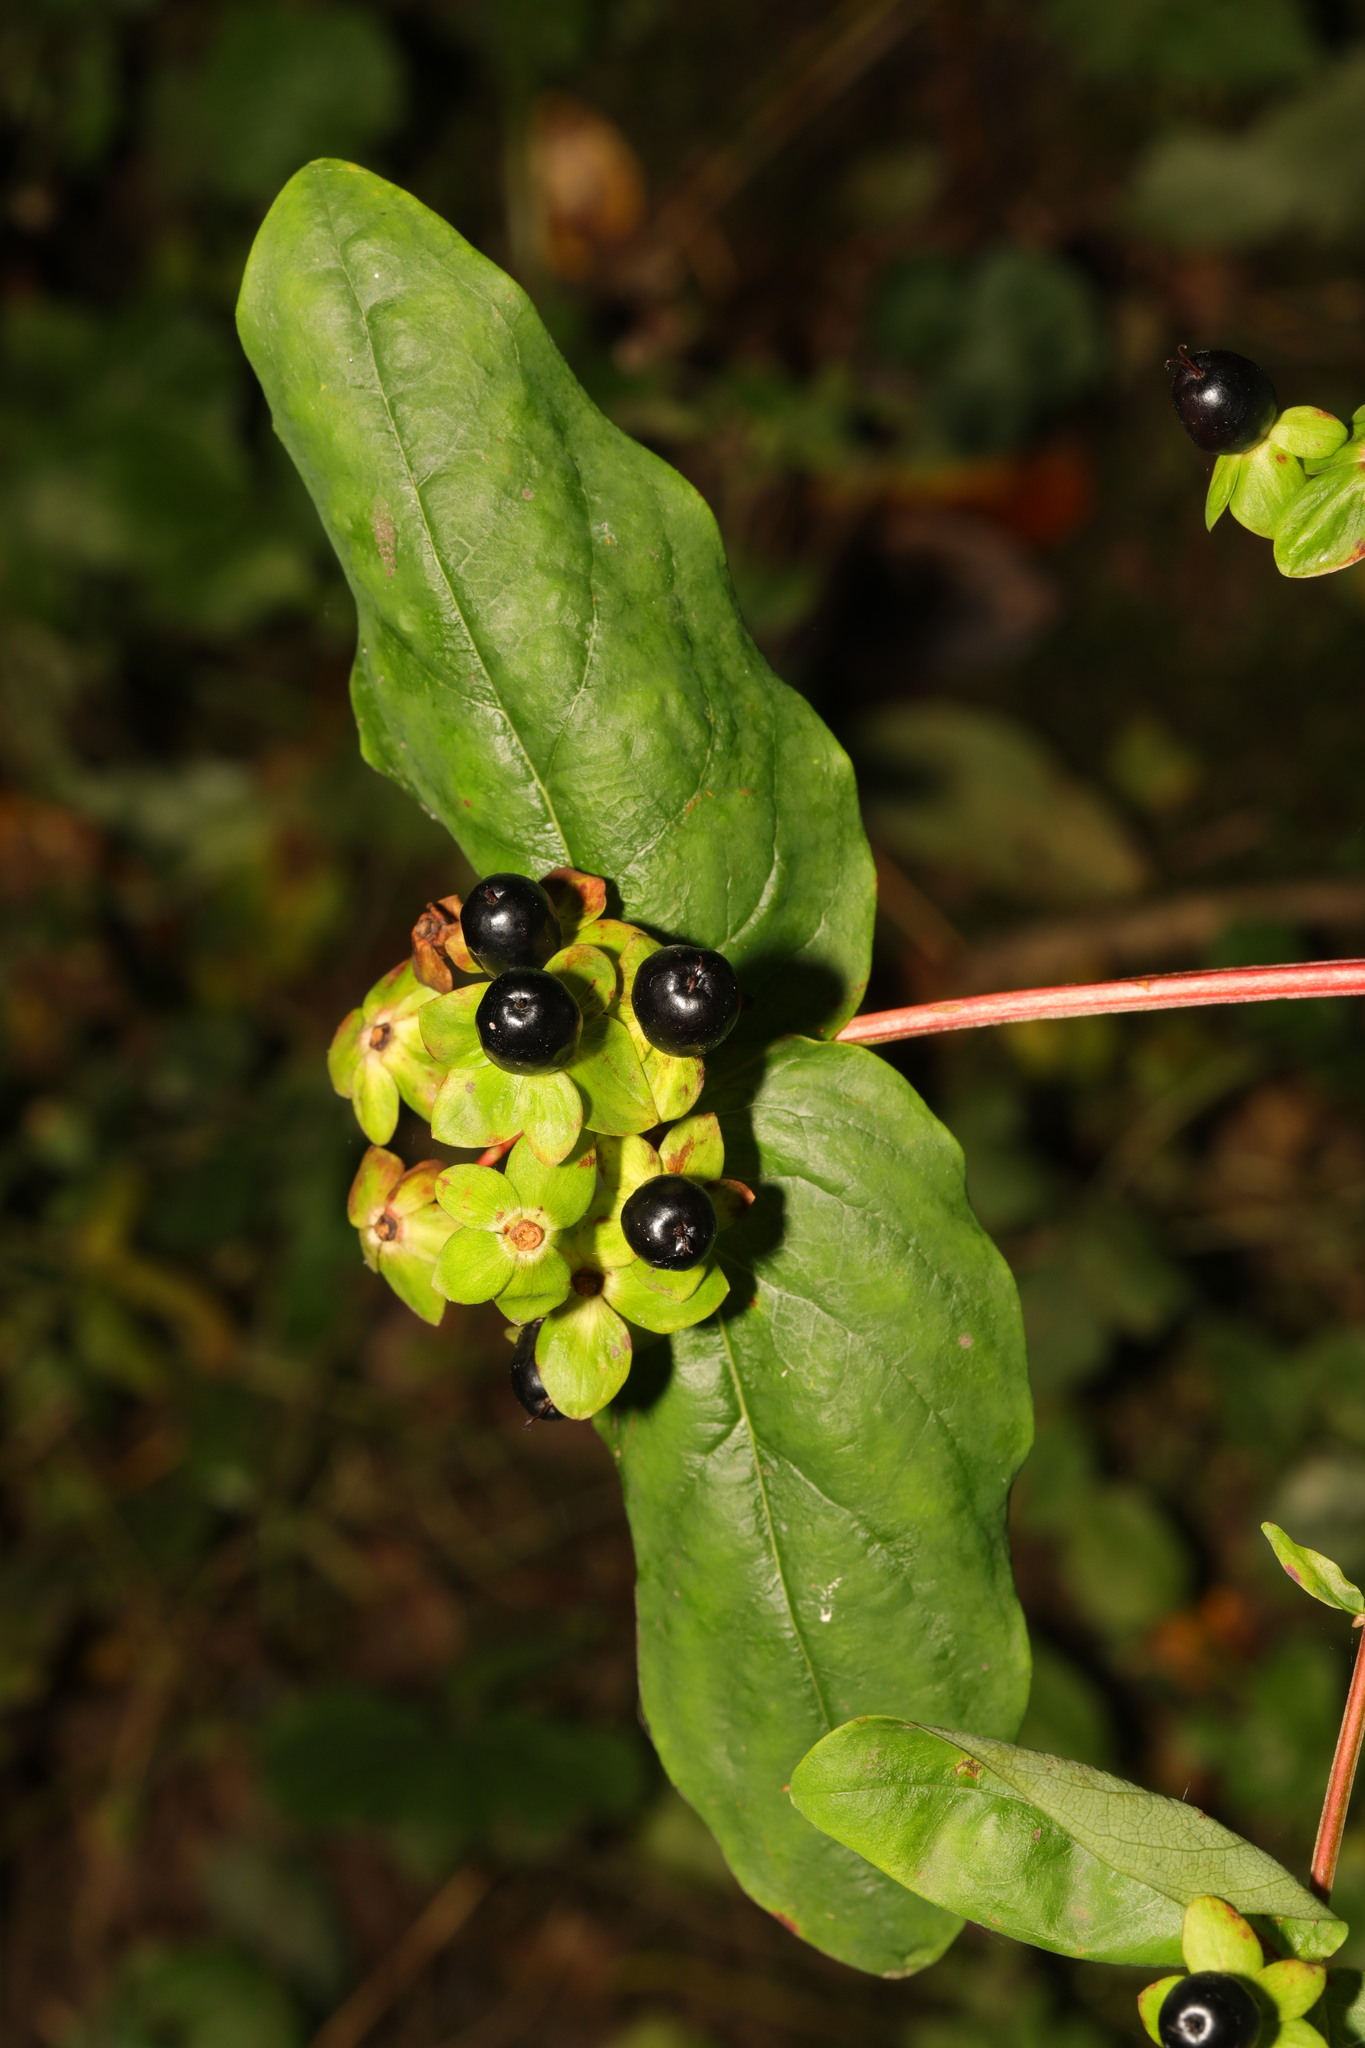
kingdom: Plantae
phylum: Tracheophyta
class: Magnoliopsida
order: Malpighiales
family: Hypericaceae
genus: Hypericum
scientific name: Hypericum androsaemum
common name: Sweet-amber
